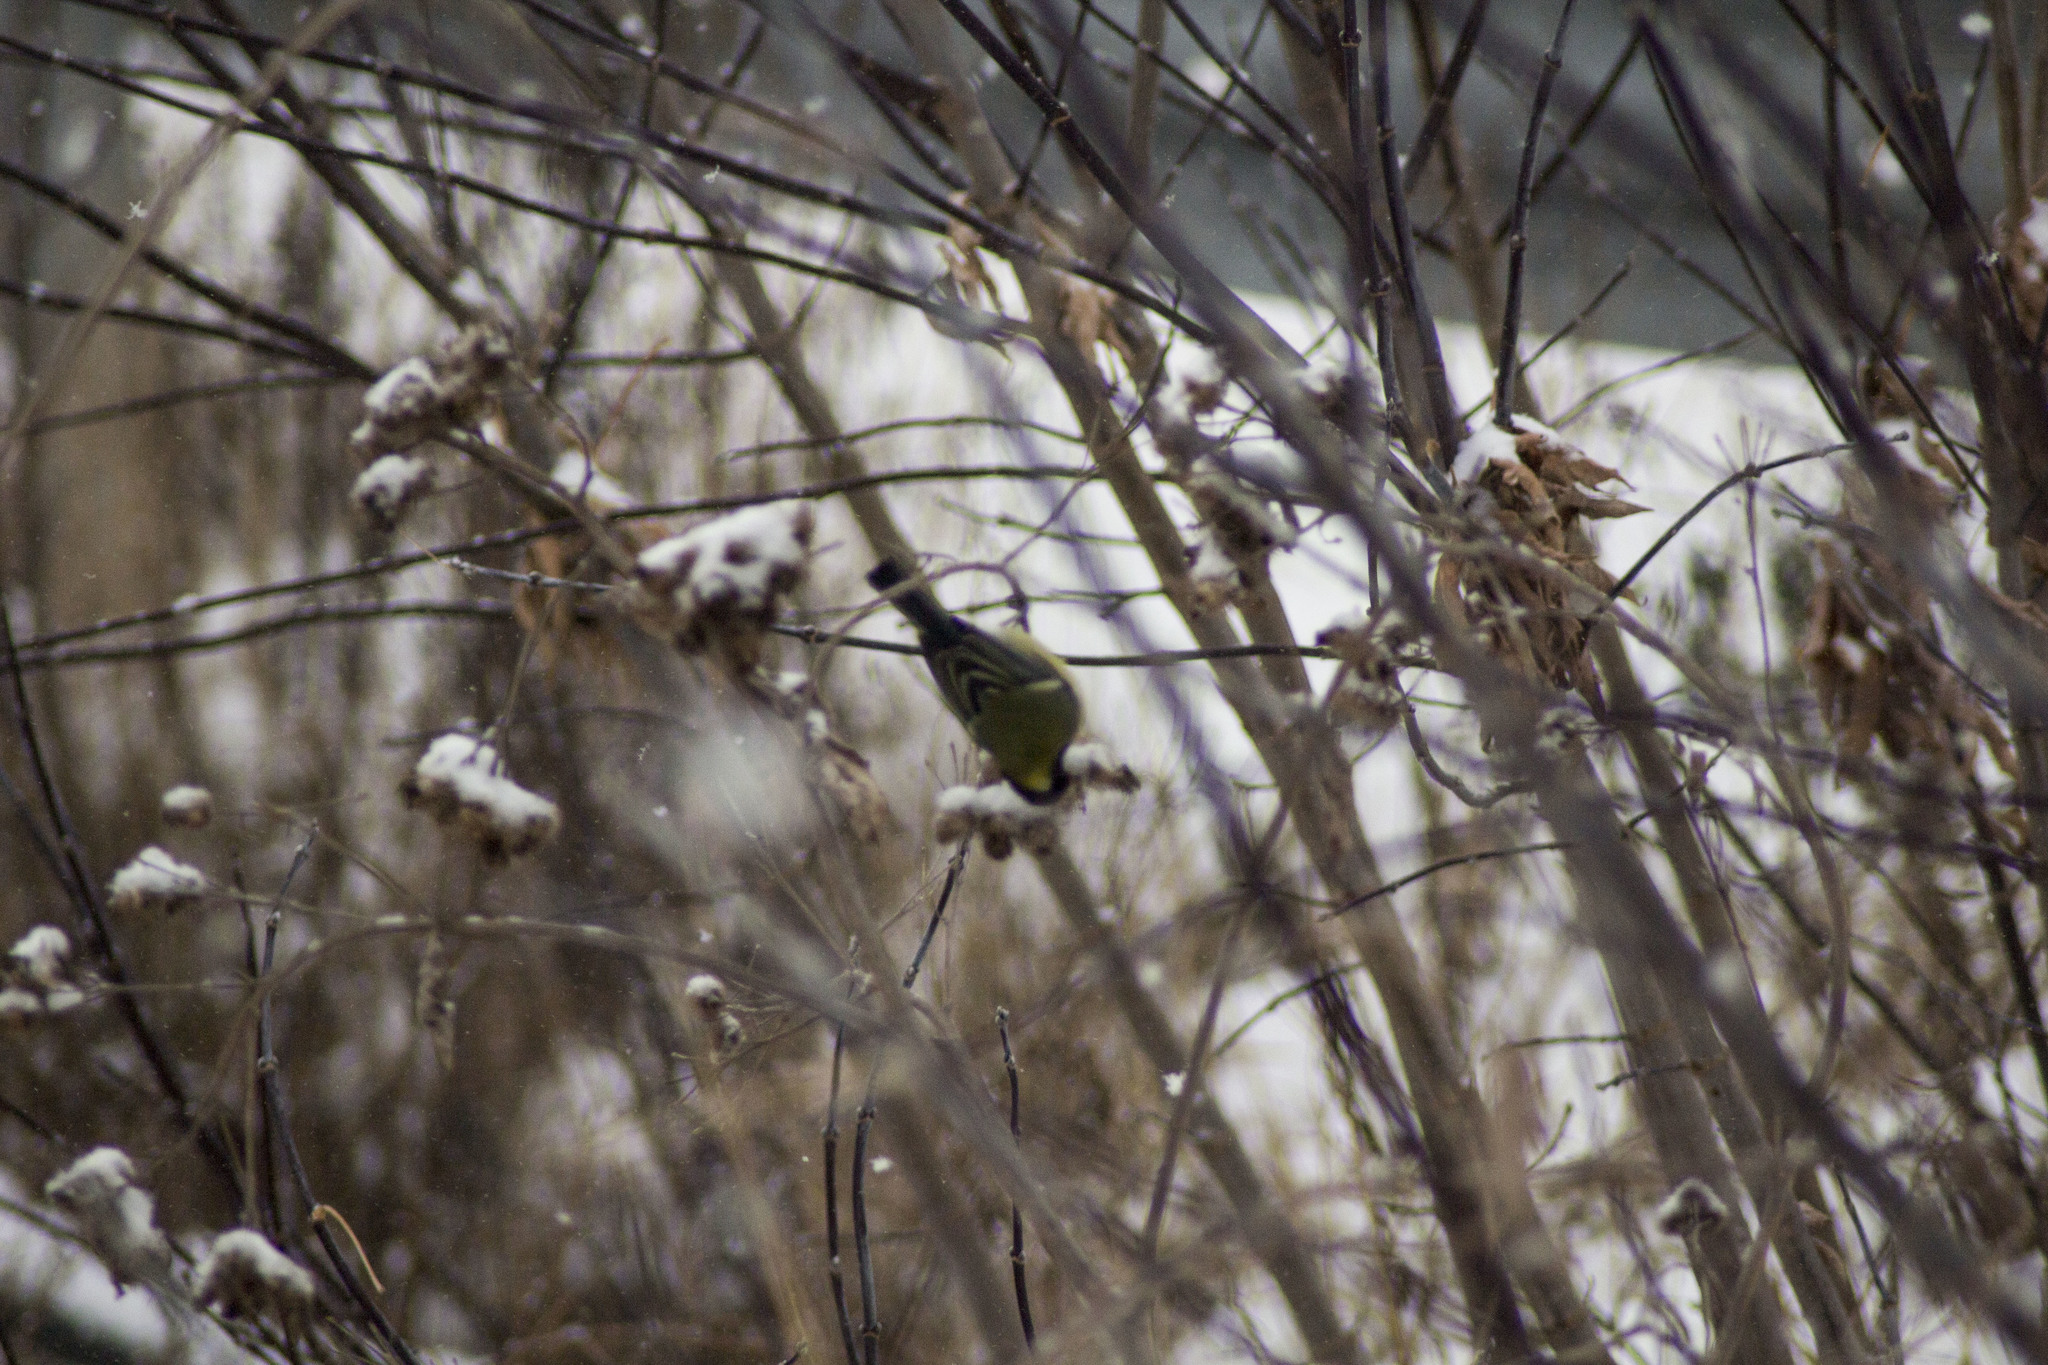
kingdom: Animalia
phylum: Chordata
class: Aves
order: Passeriformes
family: Paridae
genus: Parus
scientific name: Parus major
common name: Great tit
